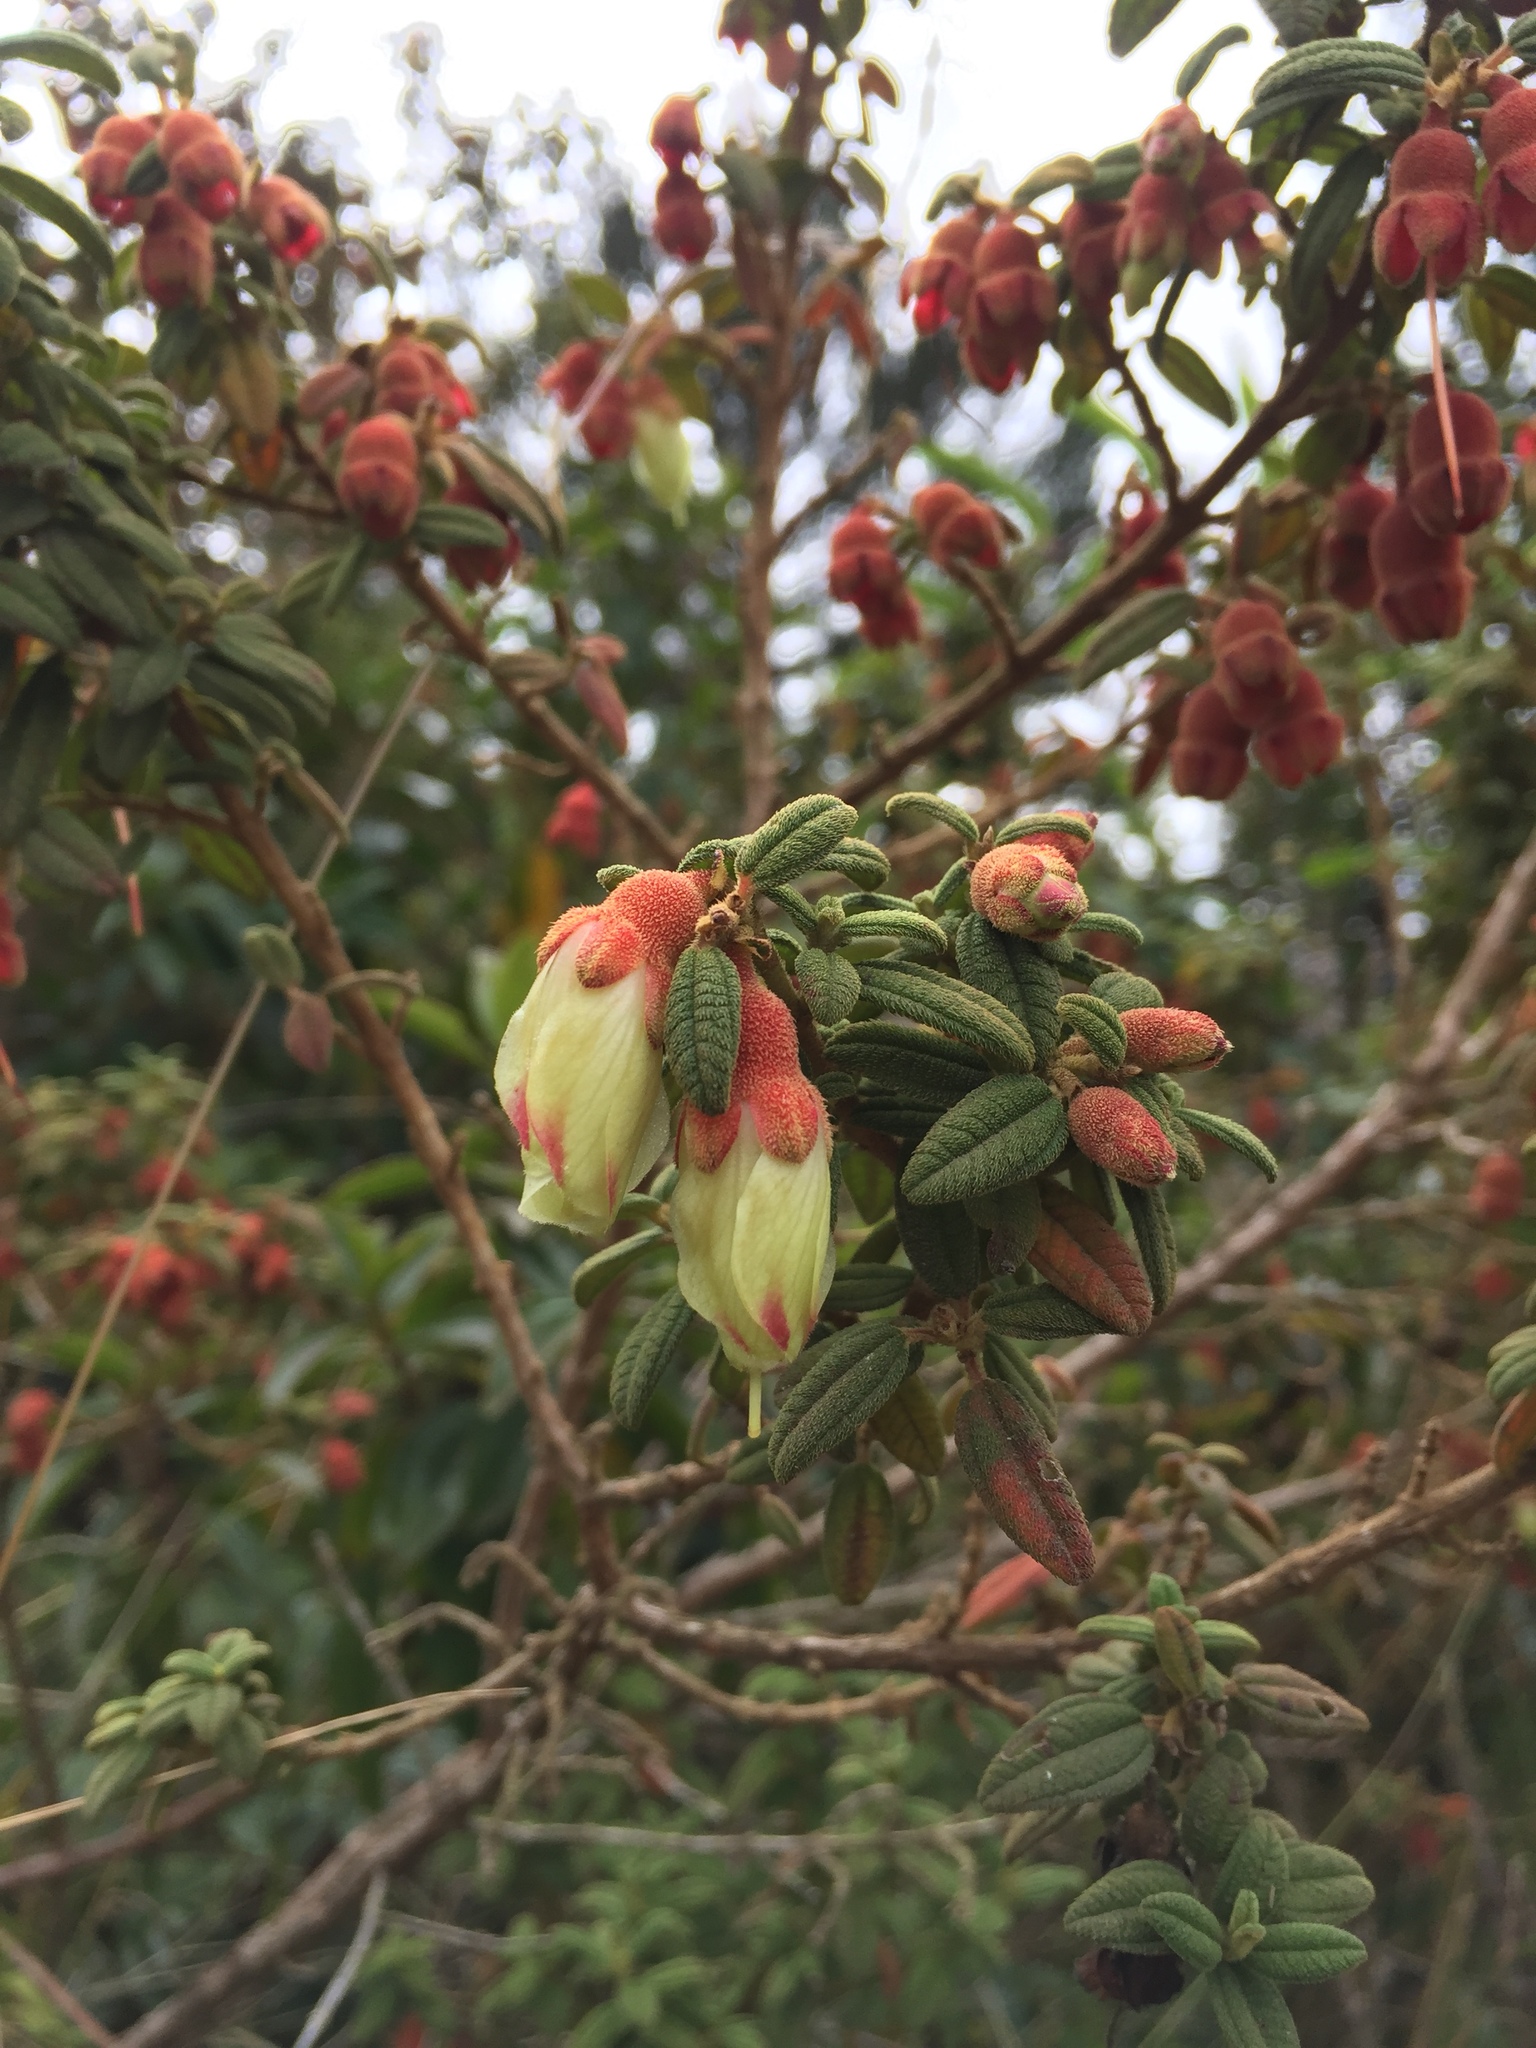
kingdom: Plantae
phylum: Tracheophyta
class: Magnoliopsida
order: Myrtales
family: Melastomataceae
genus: Brachyotum
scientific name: Brachyotum ledifolium
